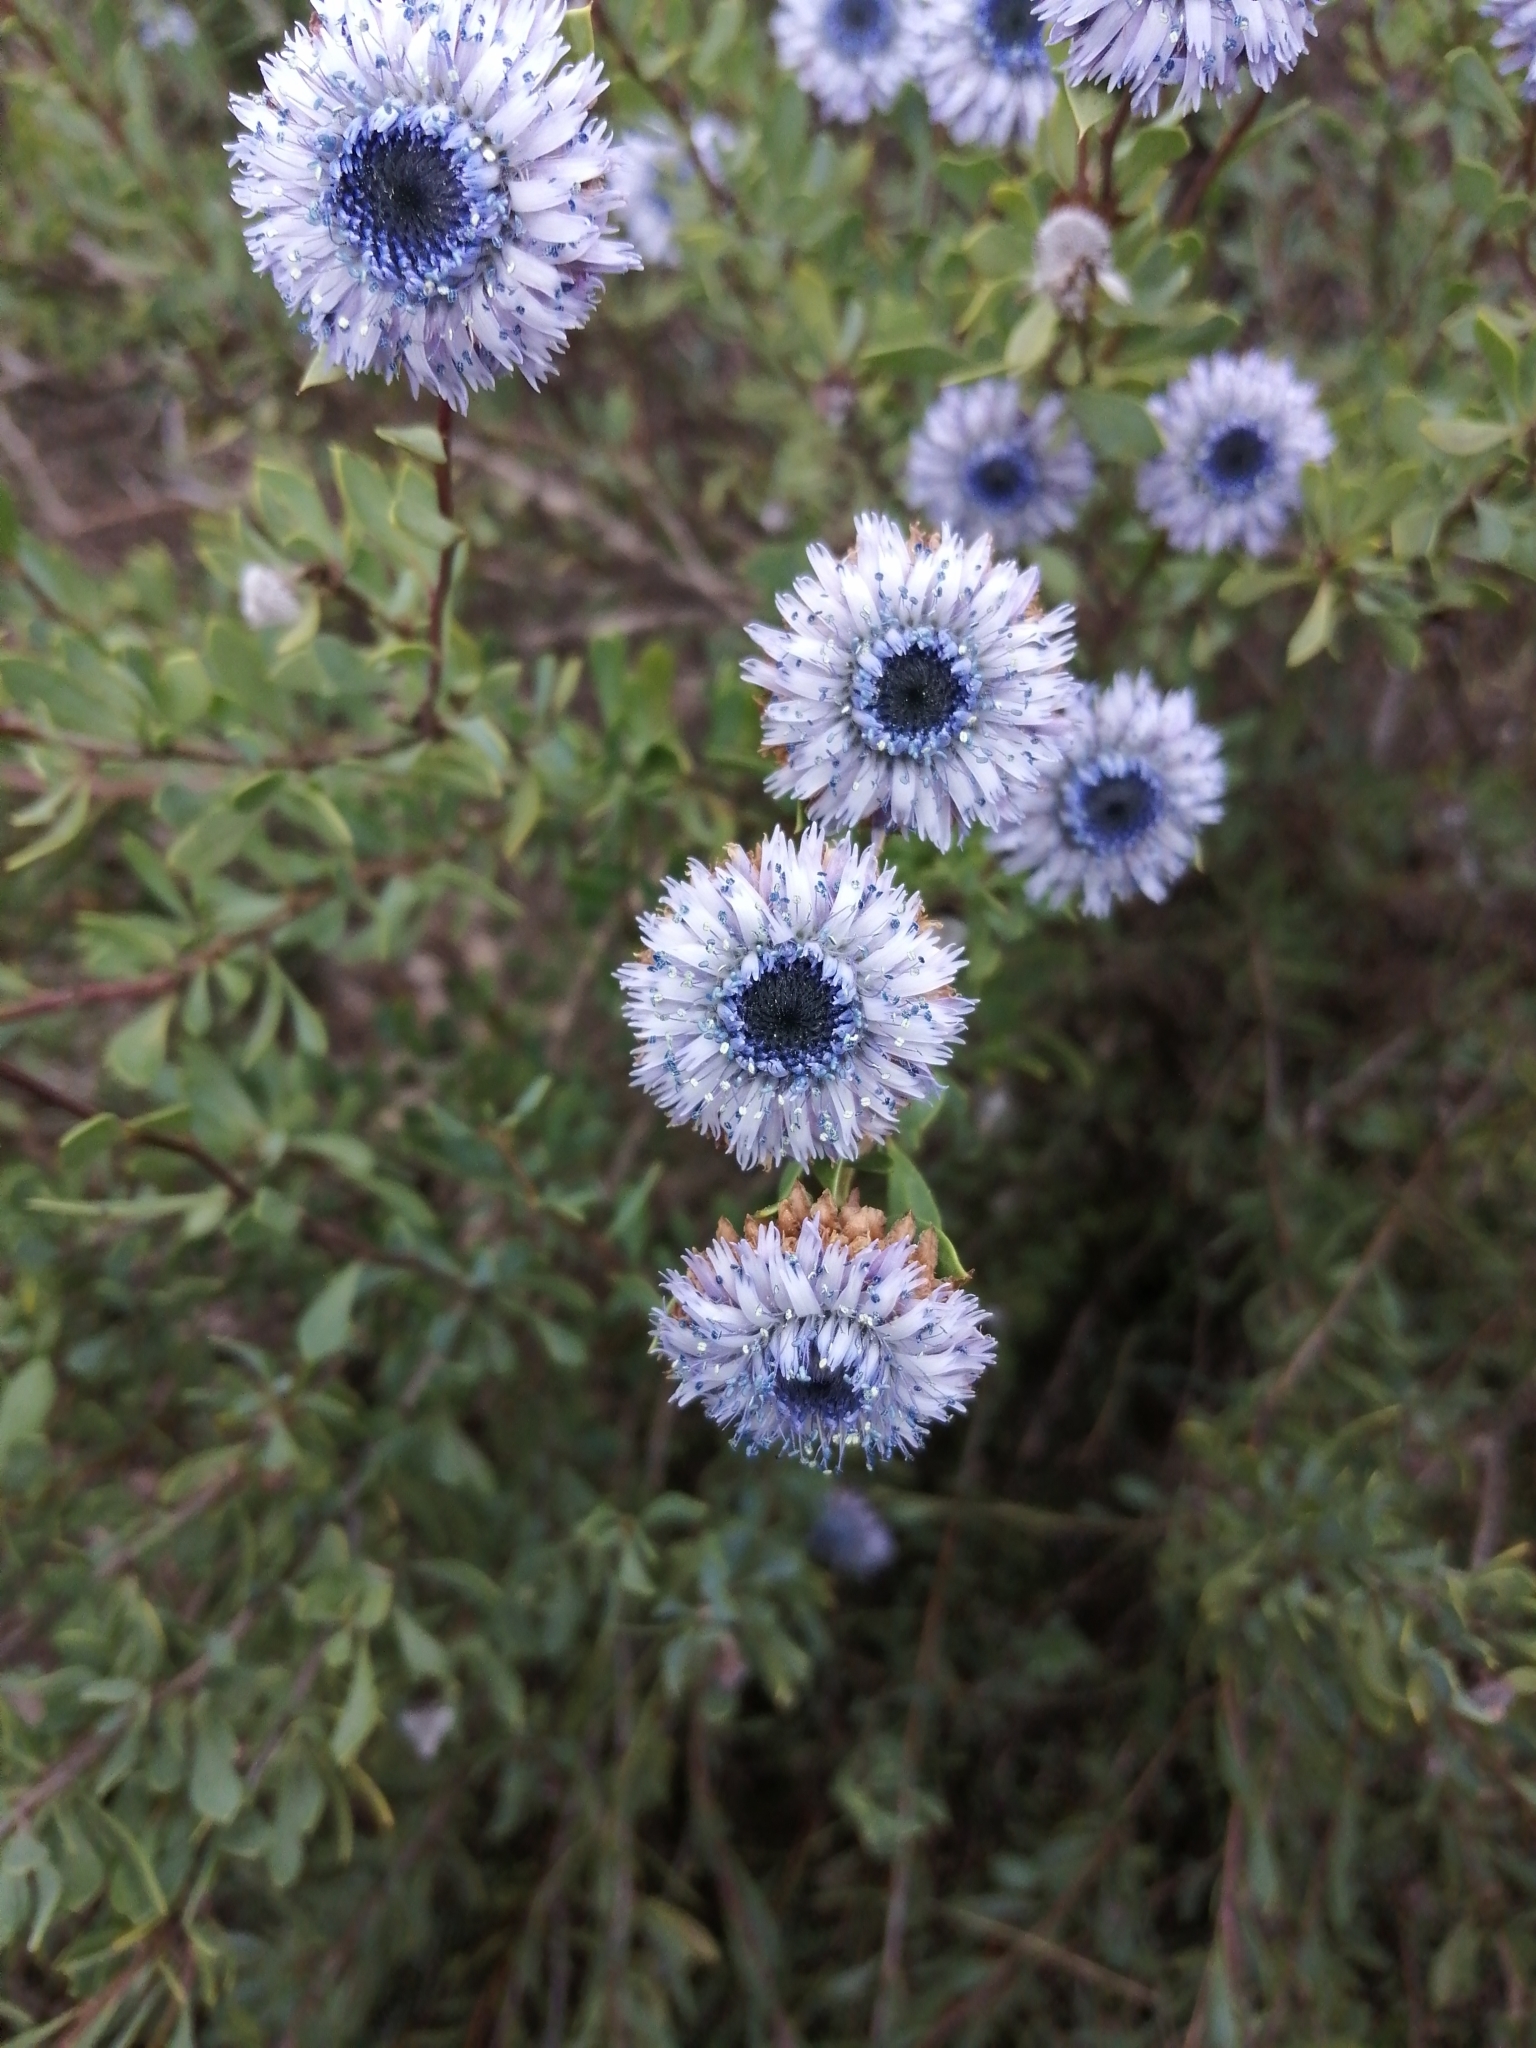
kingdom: Plantae
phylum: Tracheophyta
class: Magnoliopsida
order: Lamiales
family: Plantaginaceae
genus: Globularia
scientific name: Globularia alypum
